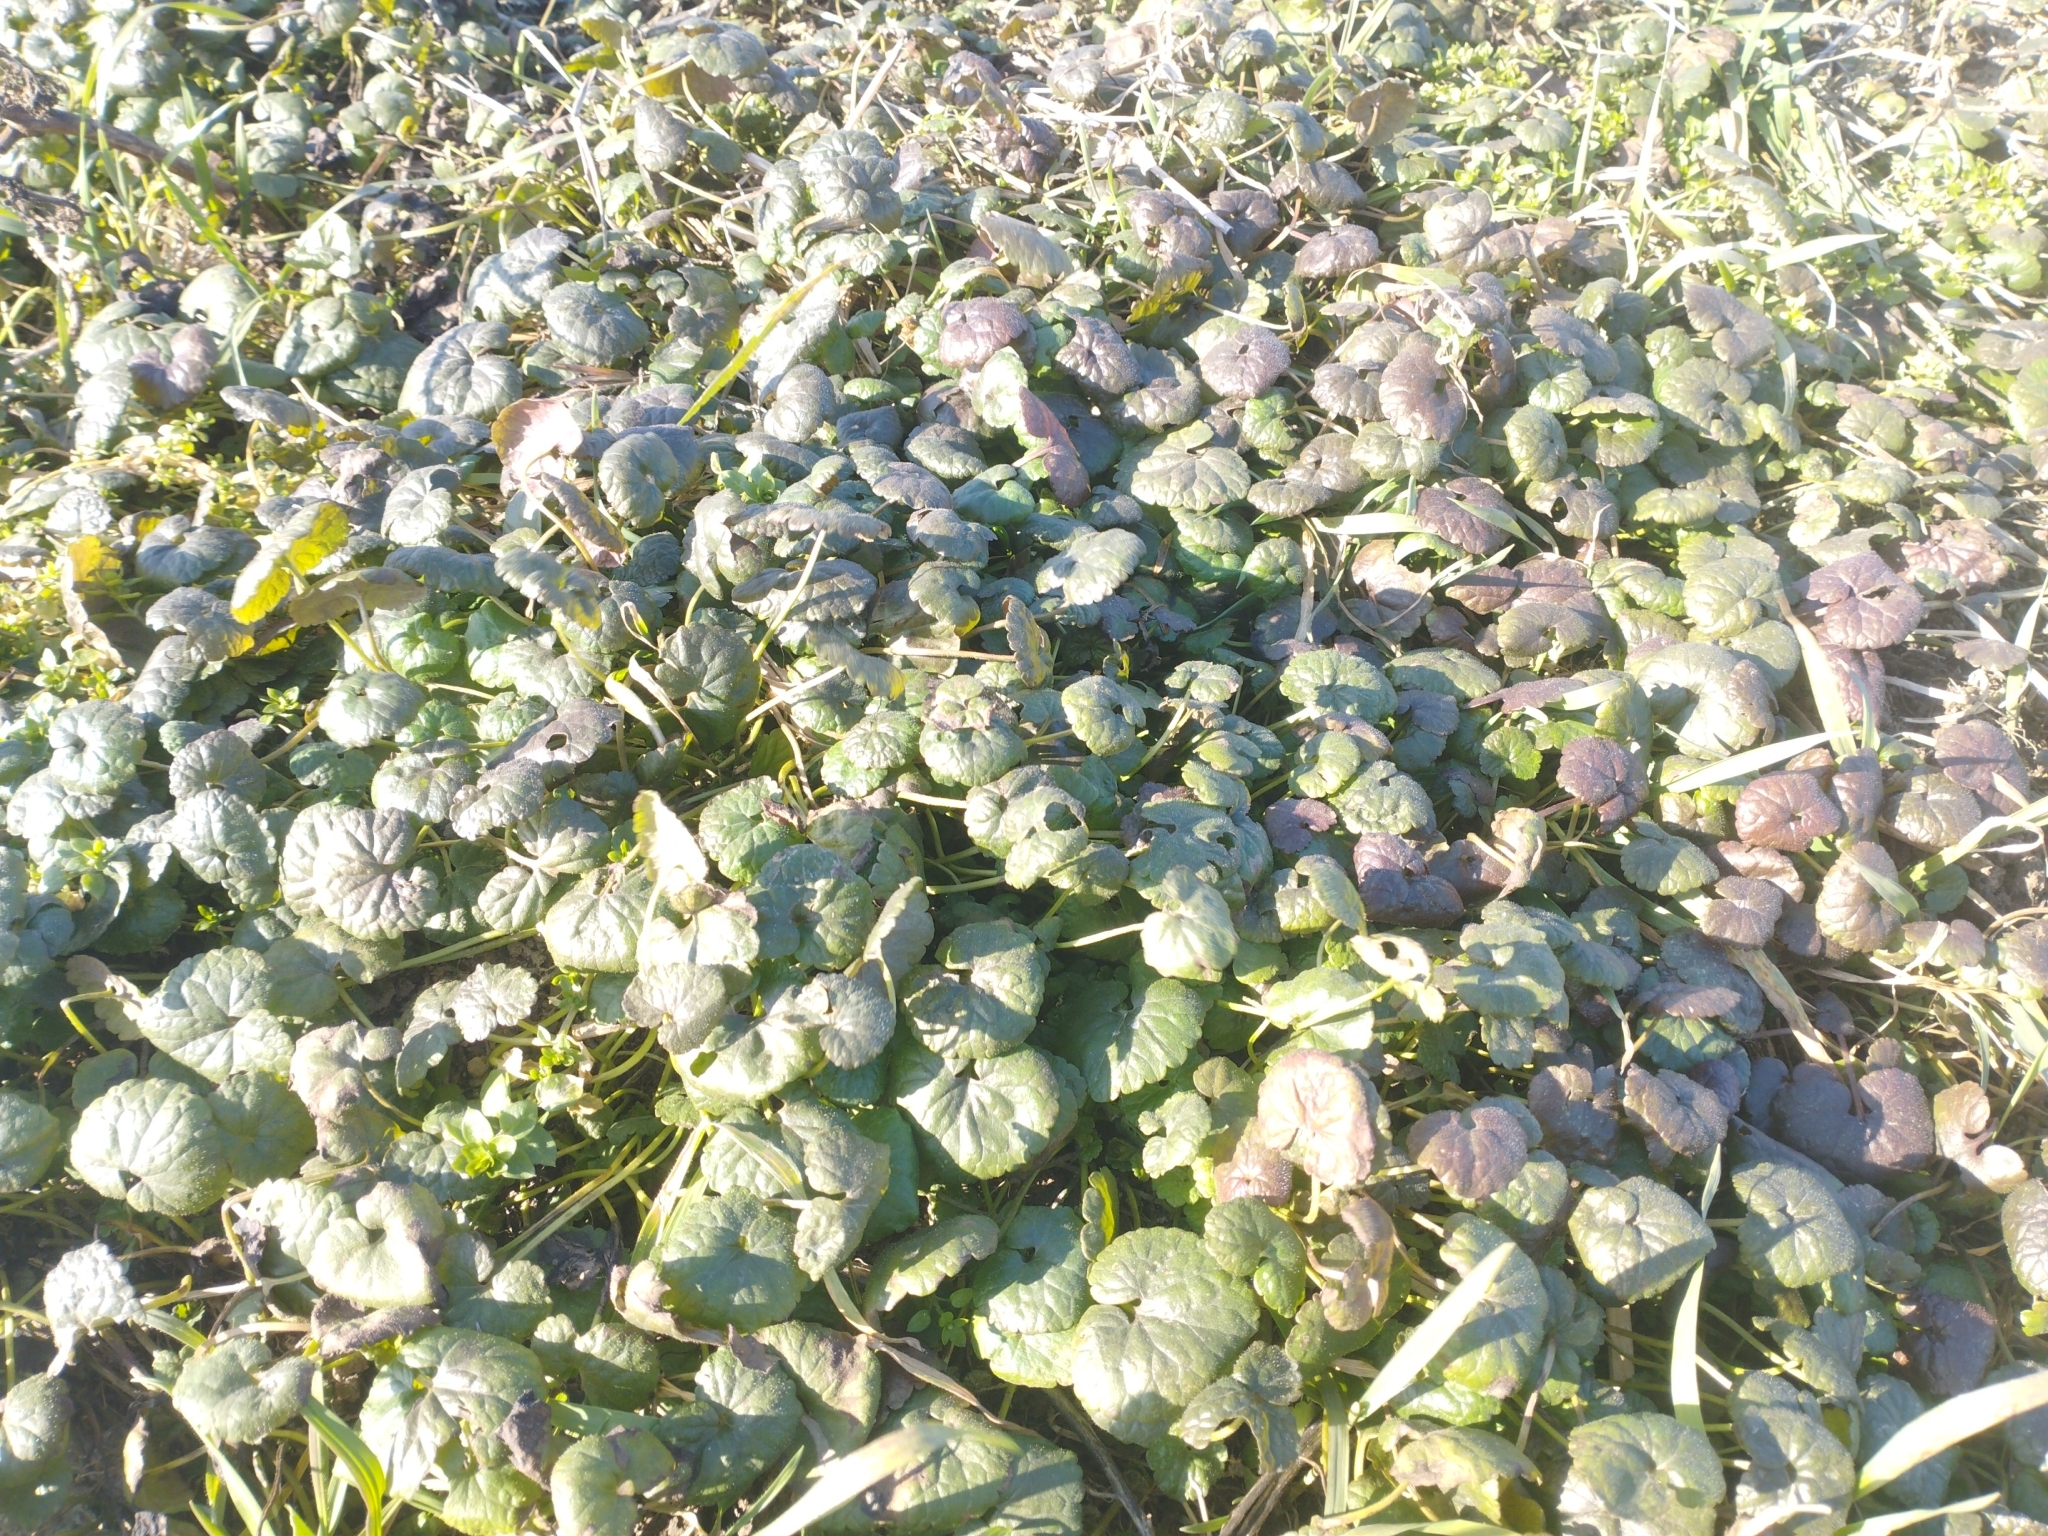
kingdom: Plantae
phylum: Tracheophyta
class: Magnoliopsida
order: Lamiales
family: Lamiaceae
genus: Glechoma
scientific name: Glechoma hederacea
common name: Ground ivy
